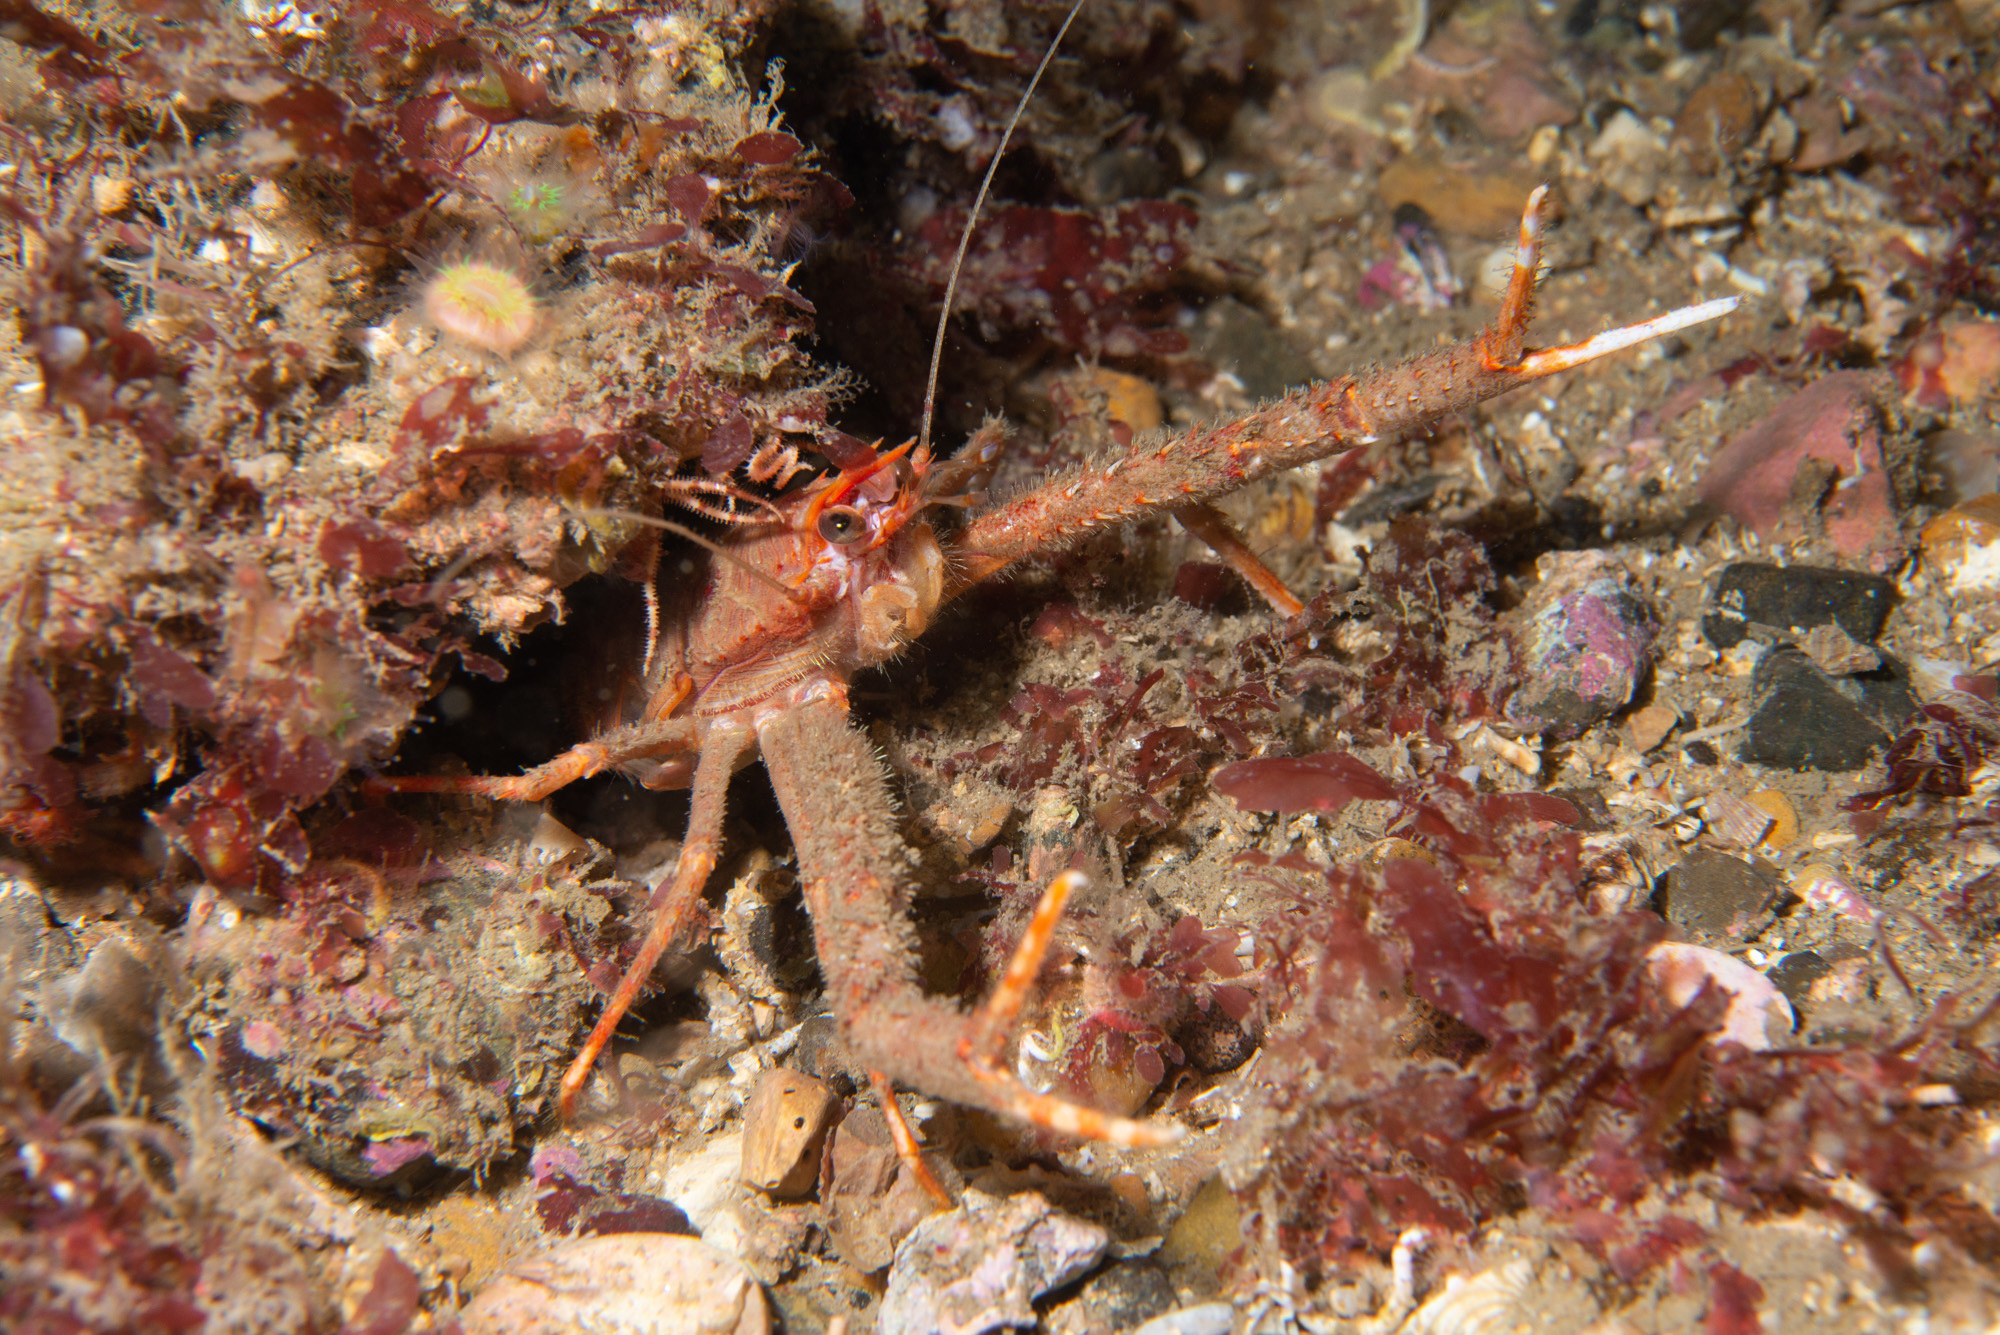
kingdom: Animalia
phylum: Arthropoda
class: Malacostraca
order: Decapoda
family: Munididae
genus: Munida
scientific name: Munida rugosa
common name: Rugose squat lobster
